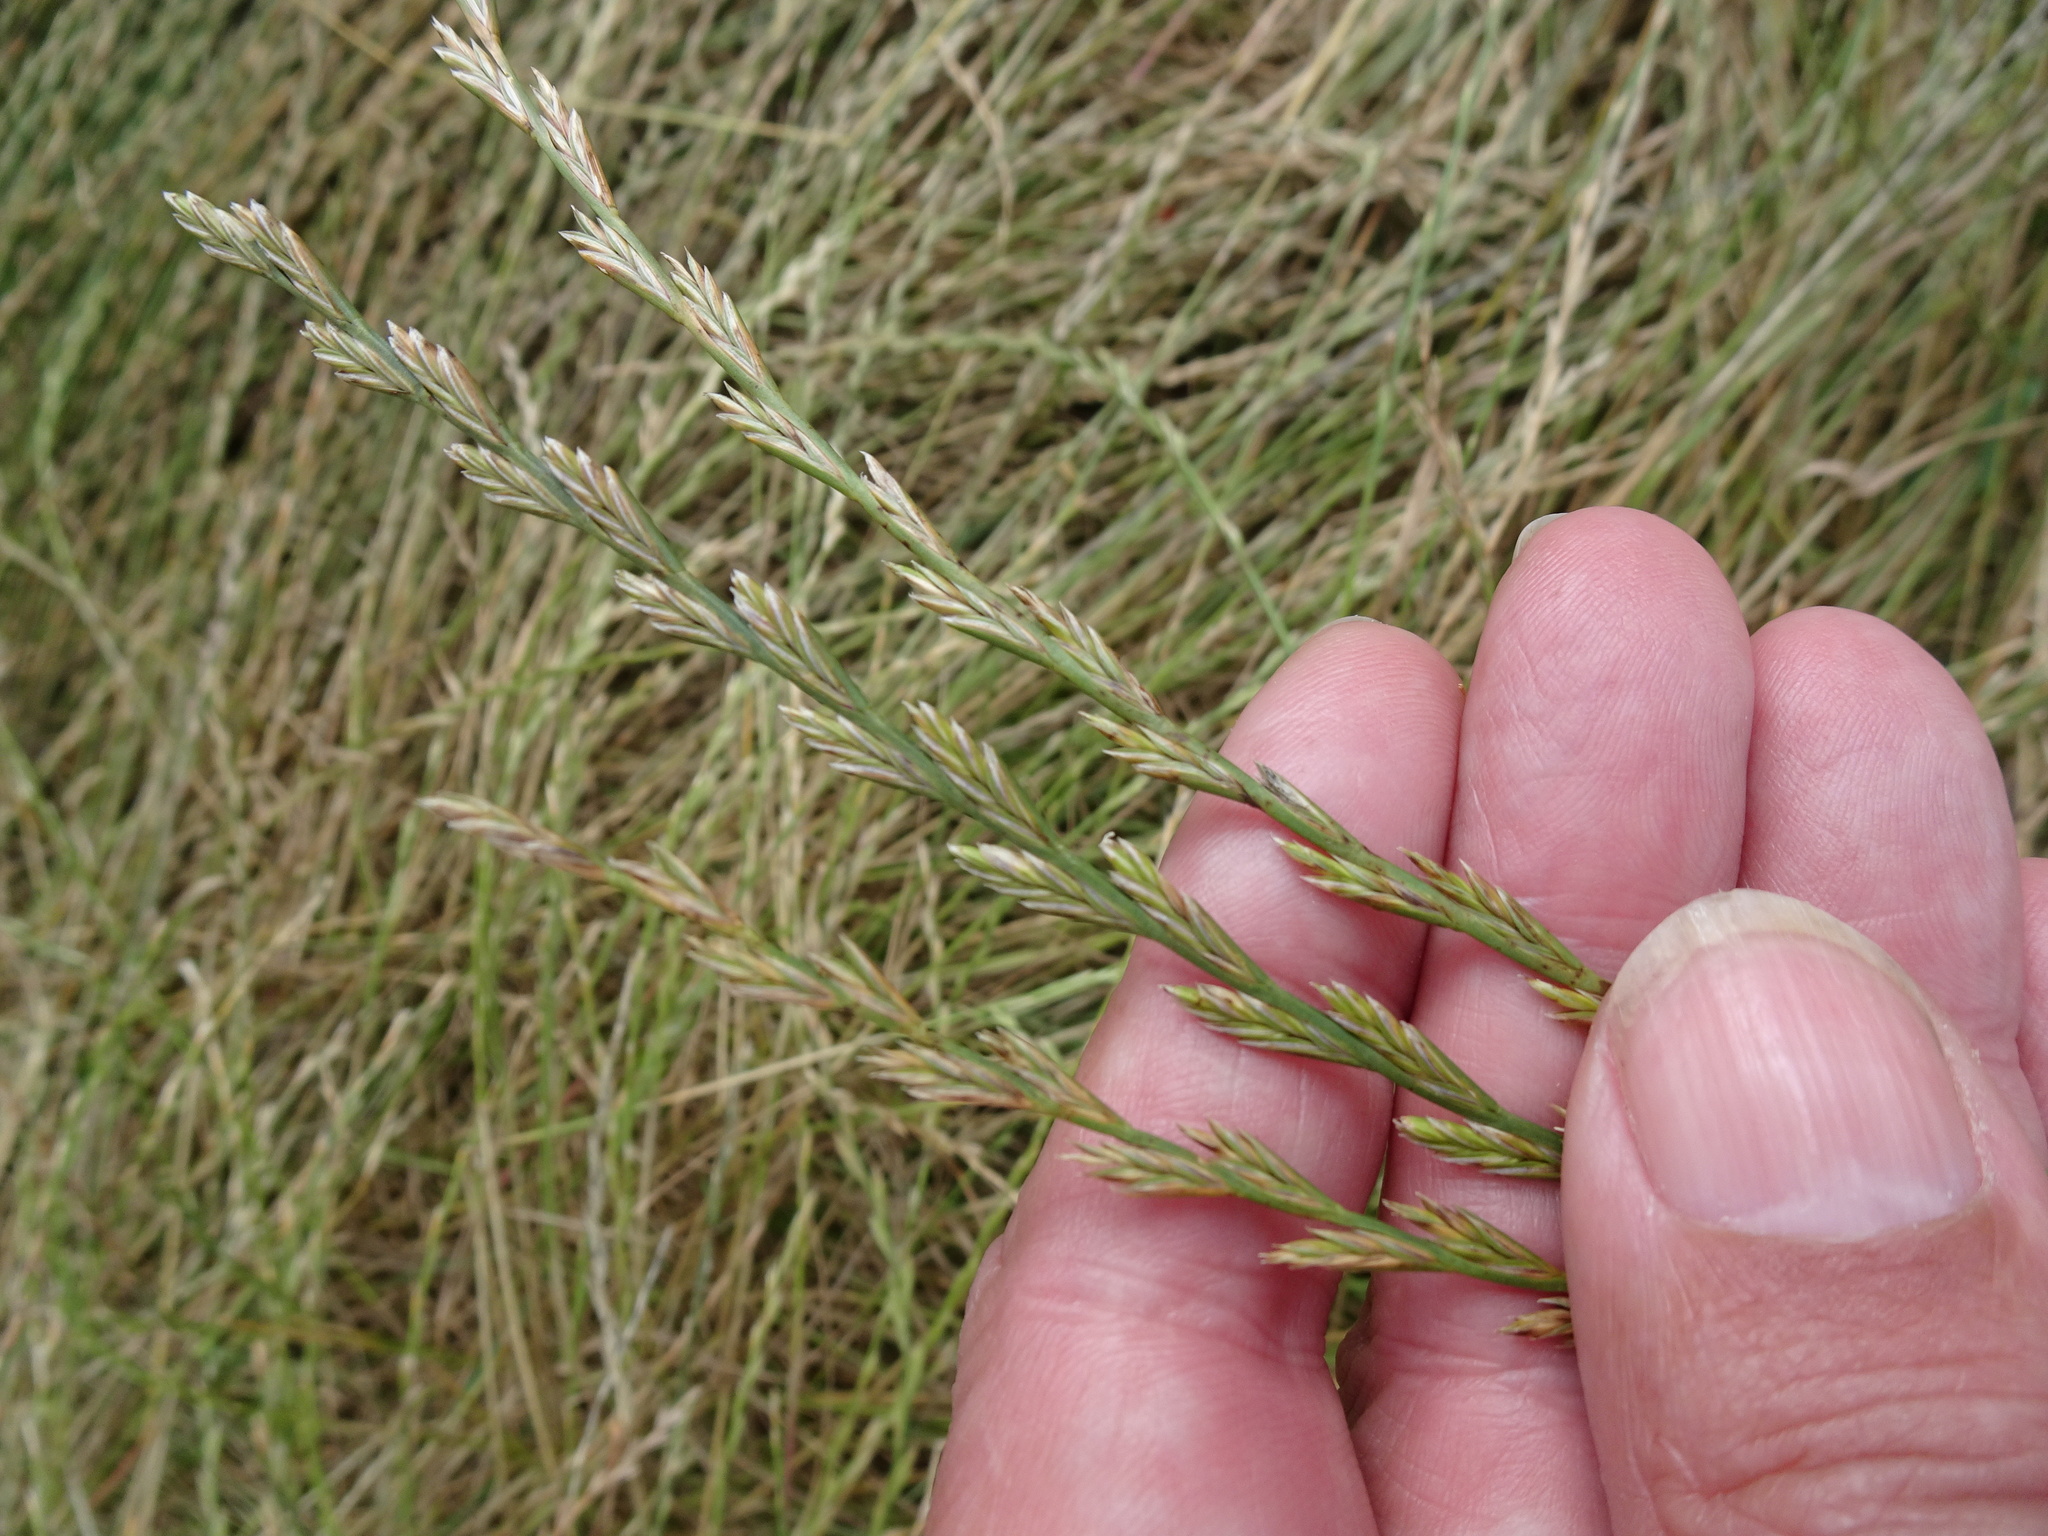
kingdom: Plantae
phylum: Tracheophyta
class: Liliopsida
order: Poales
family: Poaceae
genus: Lolium
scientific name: Lolium perenne
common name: Perennial ryegrass
